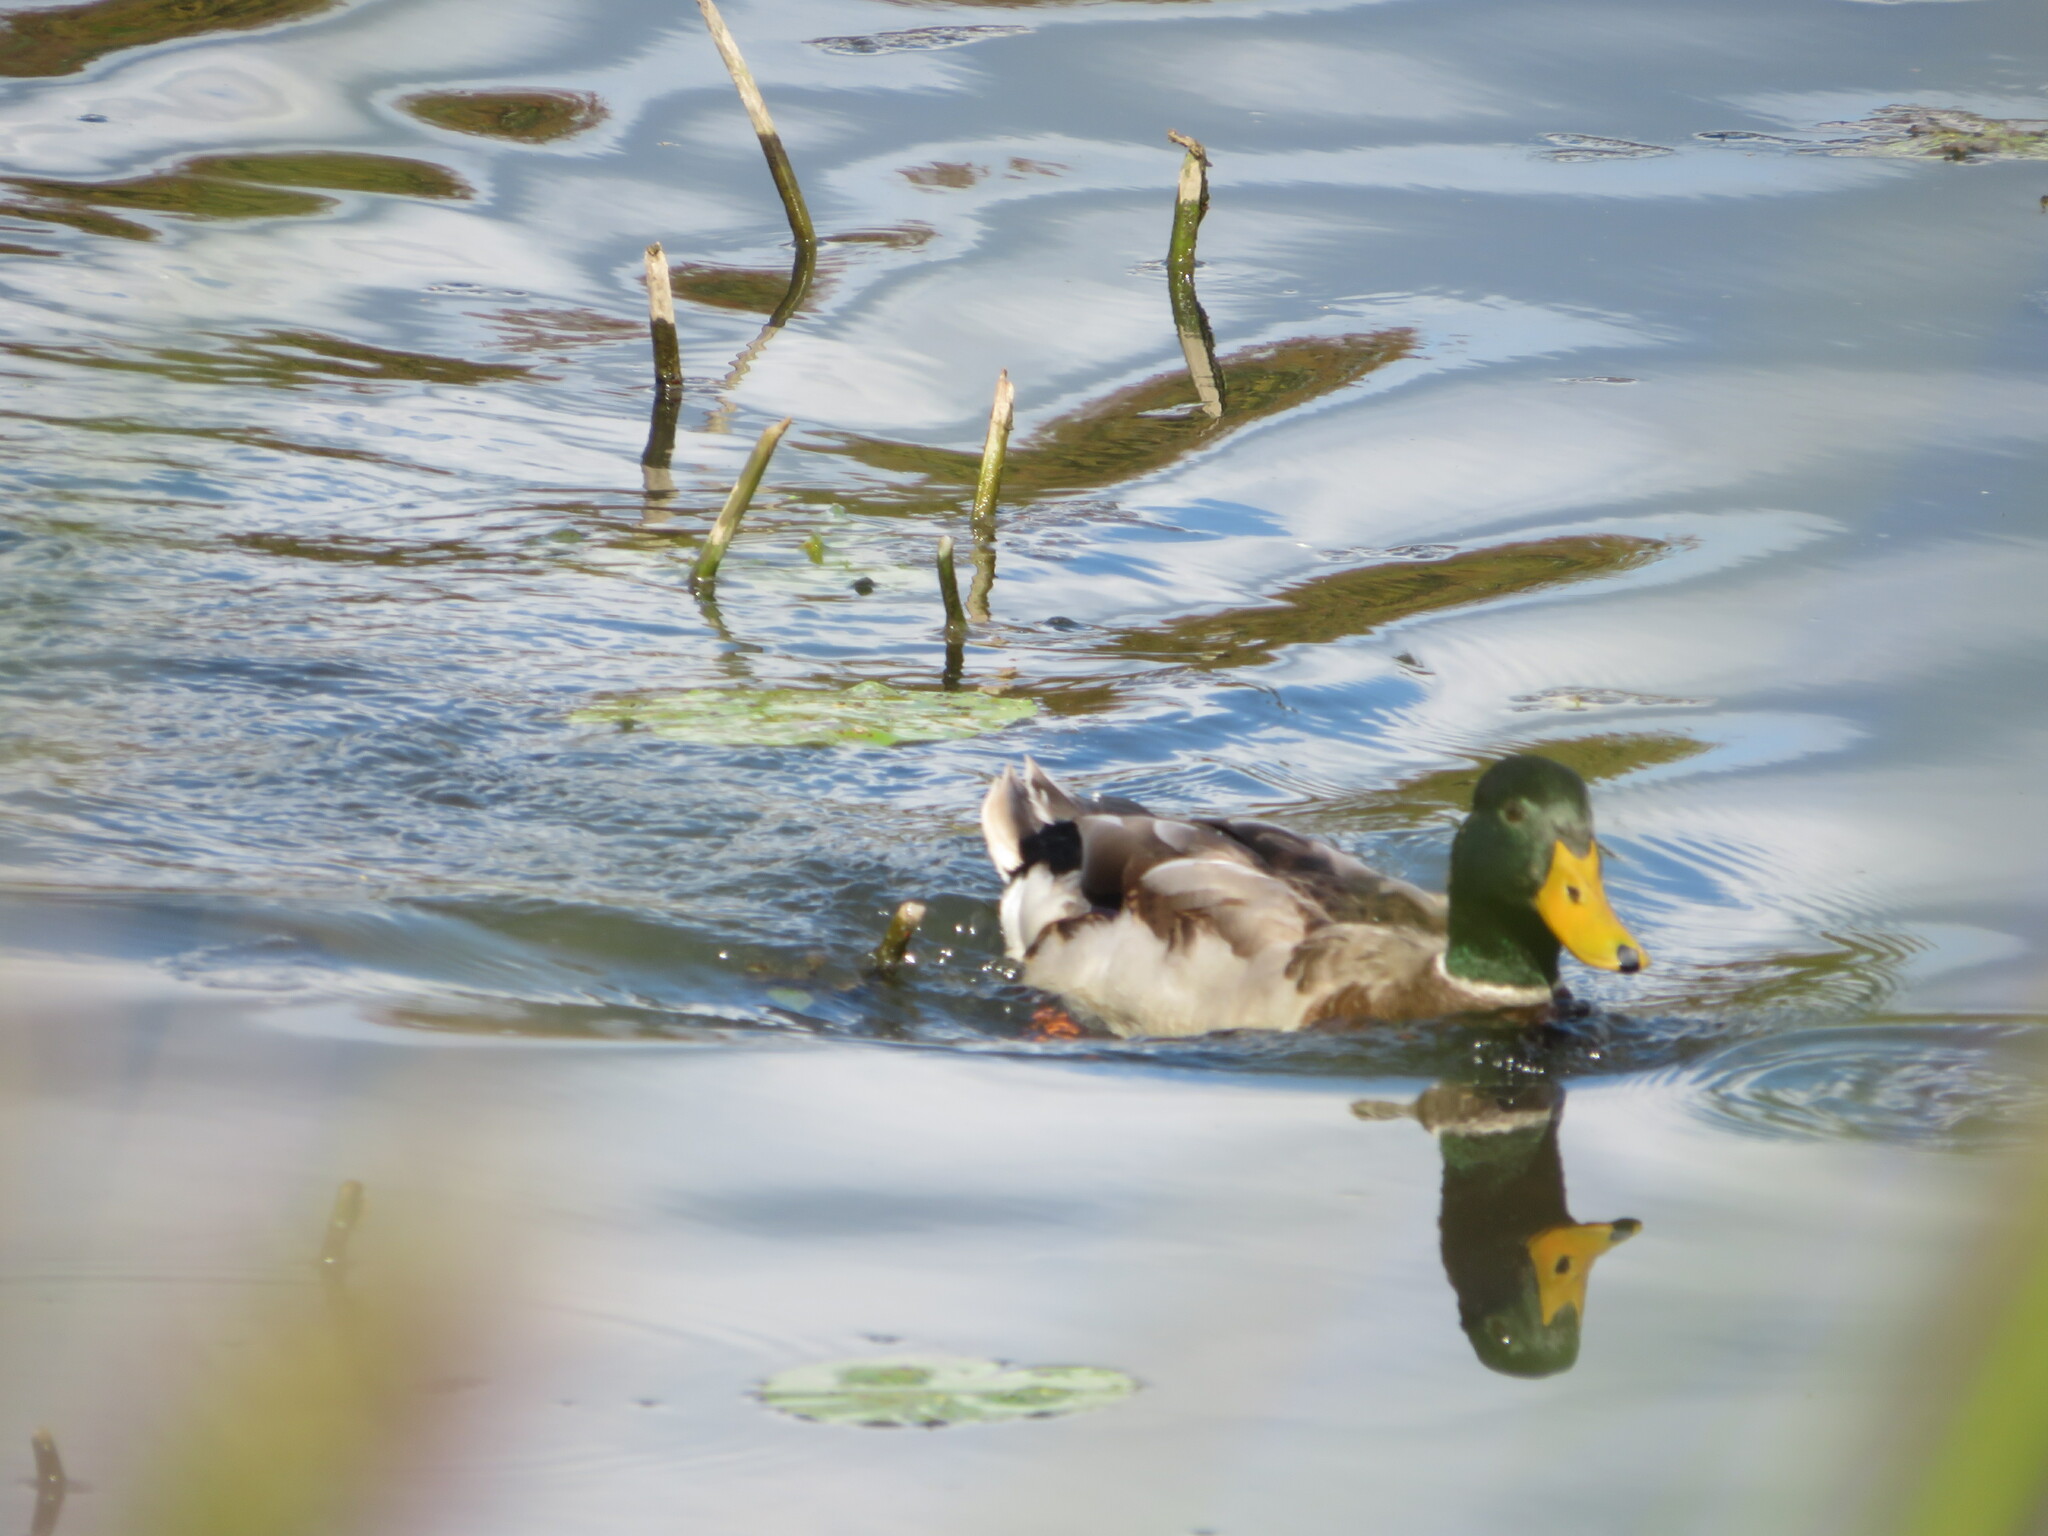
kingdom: Animalia
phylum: Chordata
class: Aves
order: Anseriformes
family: Anatidae
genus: Anas
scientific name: Anas platyrhynchos
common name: Mallard
